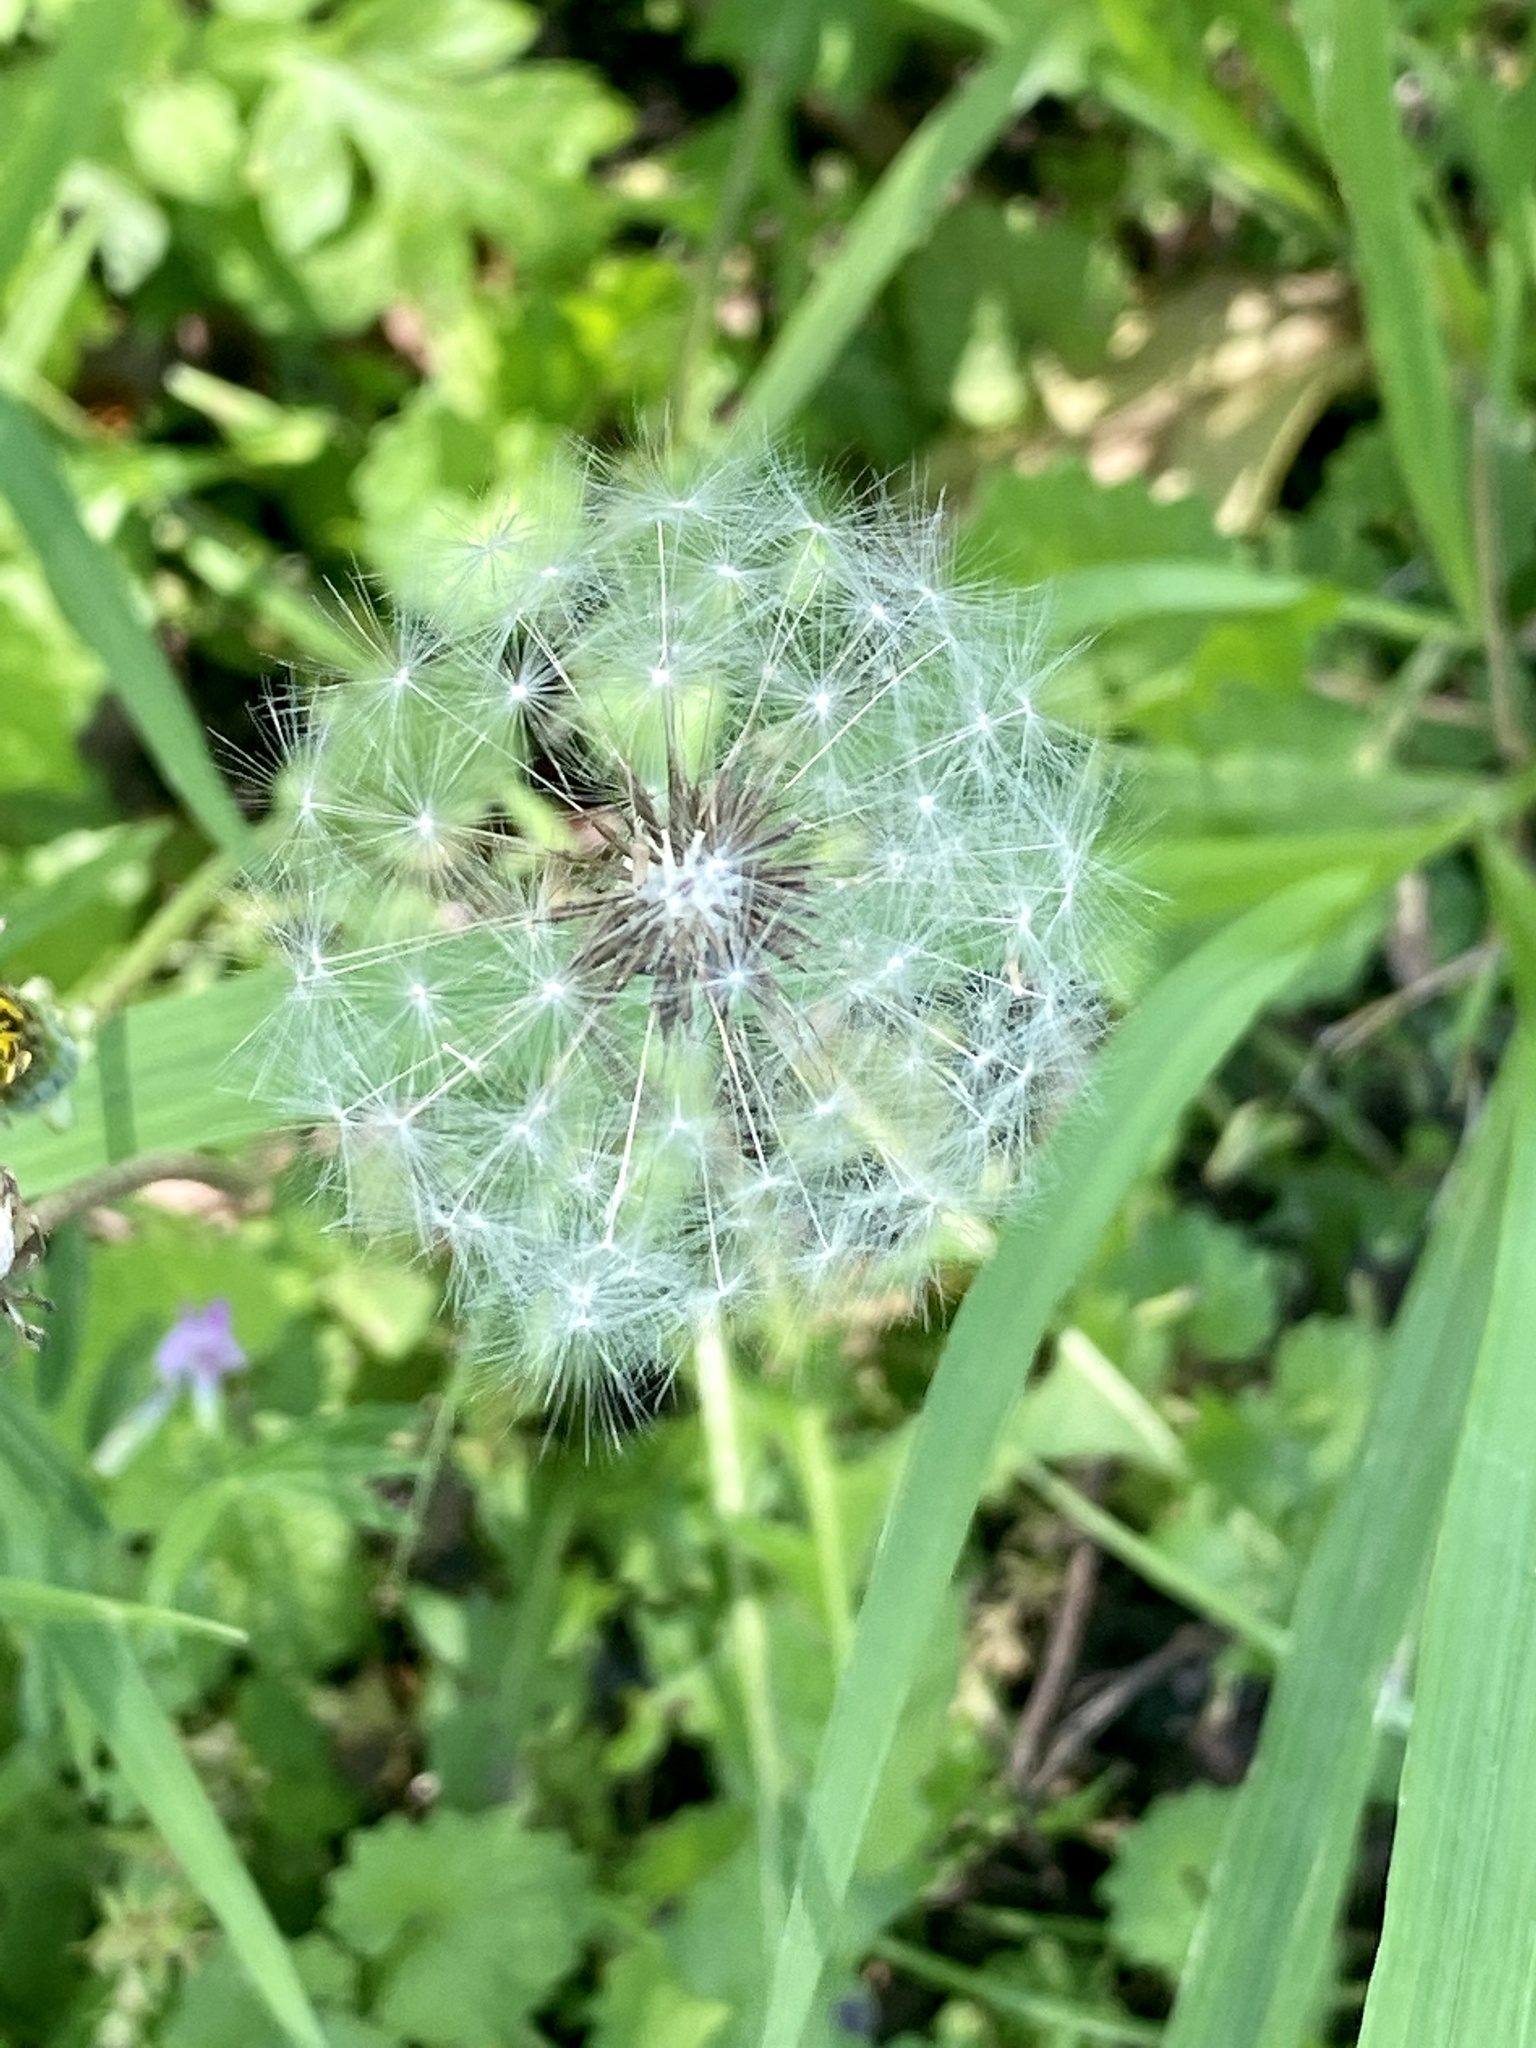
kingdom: Plantae
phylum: Tracheophyta
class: Magnoliopsida
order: Asterales
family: Asteraceae
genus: Taraxacum
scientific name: Taraxacum officinale
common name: Common dandelion
